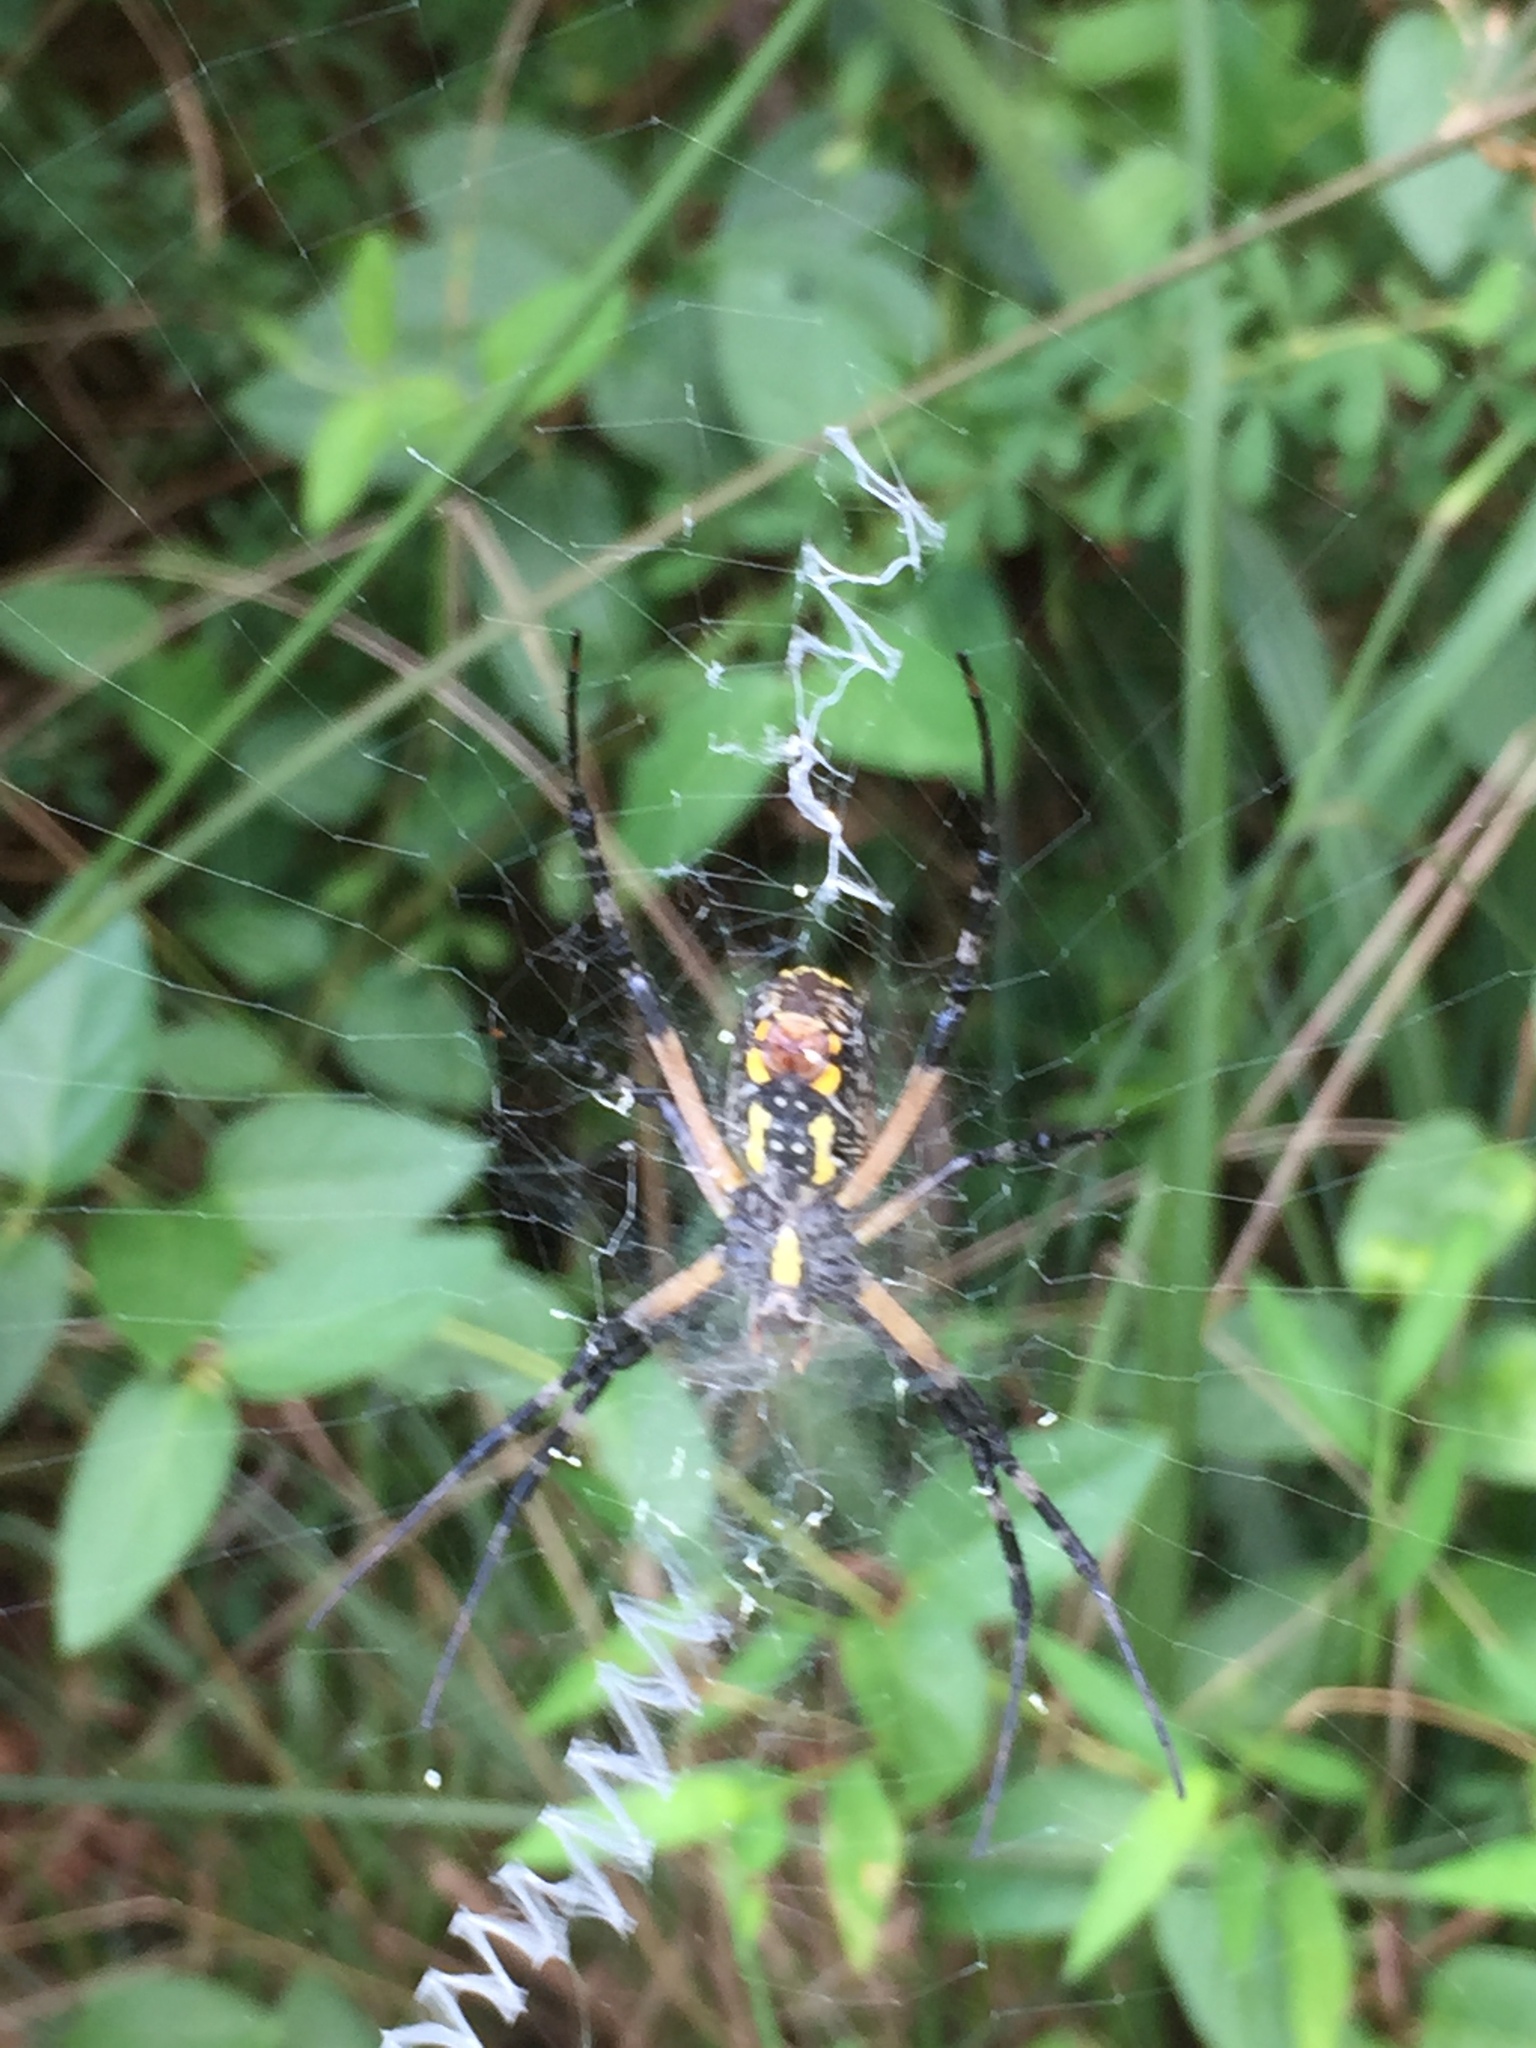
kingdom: Animalia
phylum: Arthropoda
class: Arachnida
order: Araneae
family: Araneidae
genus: Argiope
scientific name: Argiope aurantia
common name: Orb weavers
